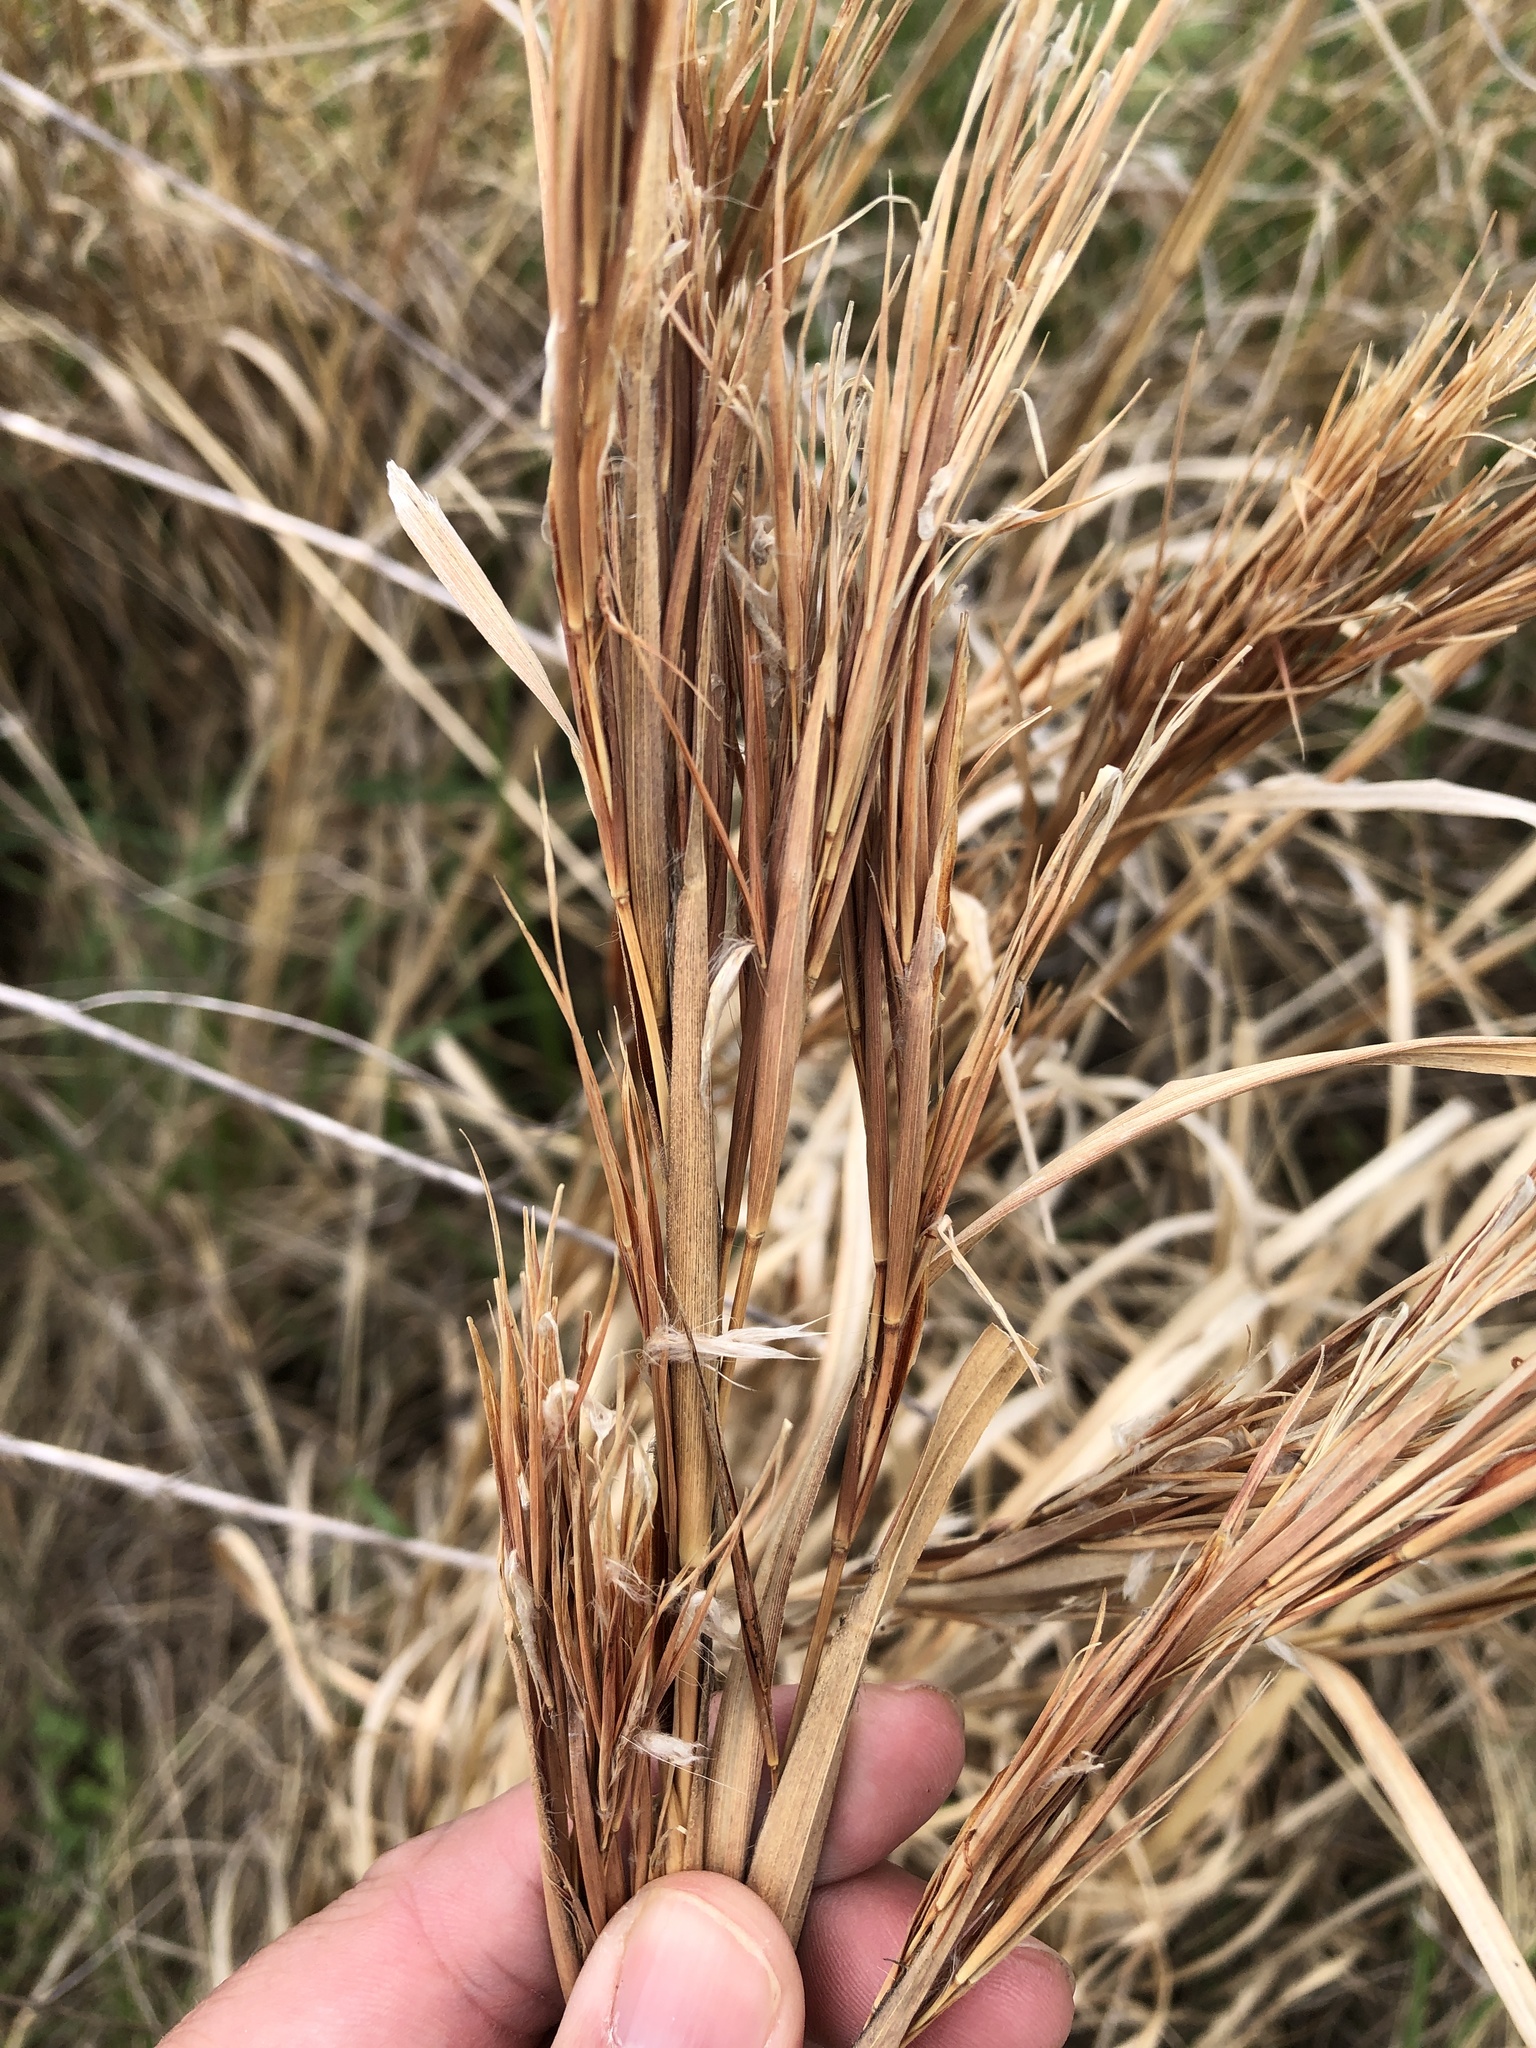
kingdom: Plantae
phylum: Tracheophyta
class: Liliopsida
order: Poales
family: Poaceae
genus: Andropogon
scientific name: Andropogon tenuispatheus
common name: Bushy bluestem
